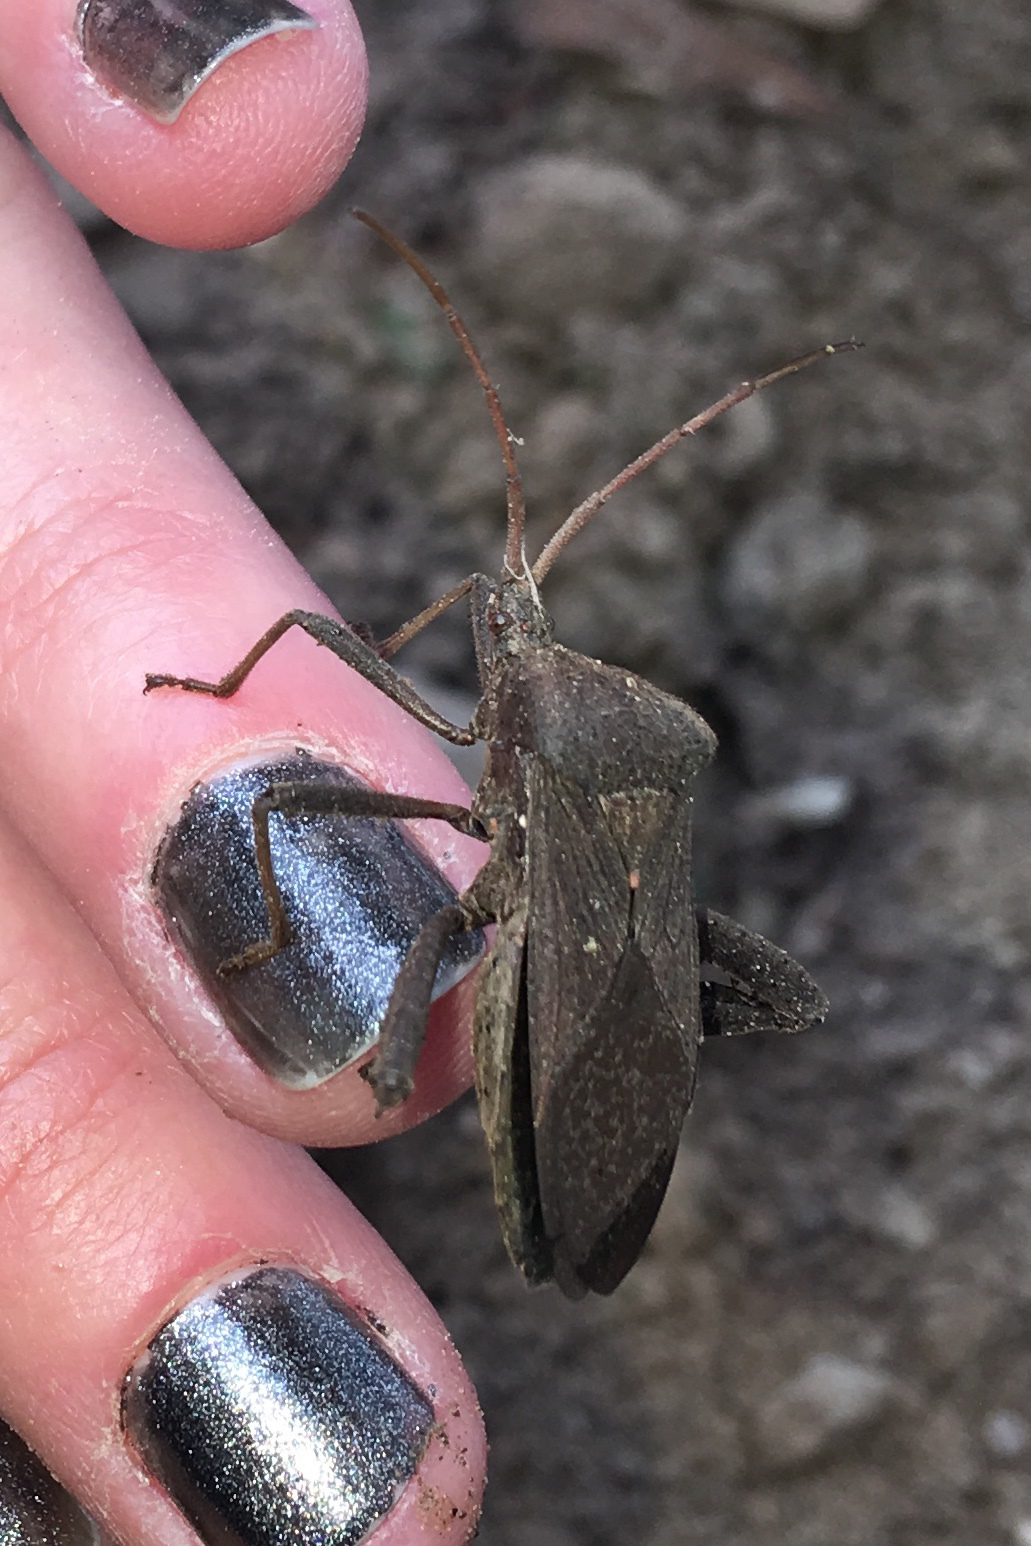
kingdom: Animalia
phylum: Arthropoda
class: Insecta
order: Hemiptera
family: Coreidae
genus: Acanthocephala
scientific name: Acanthocephala femorata
